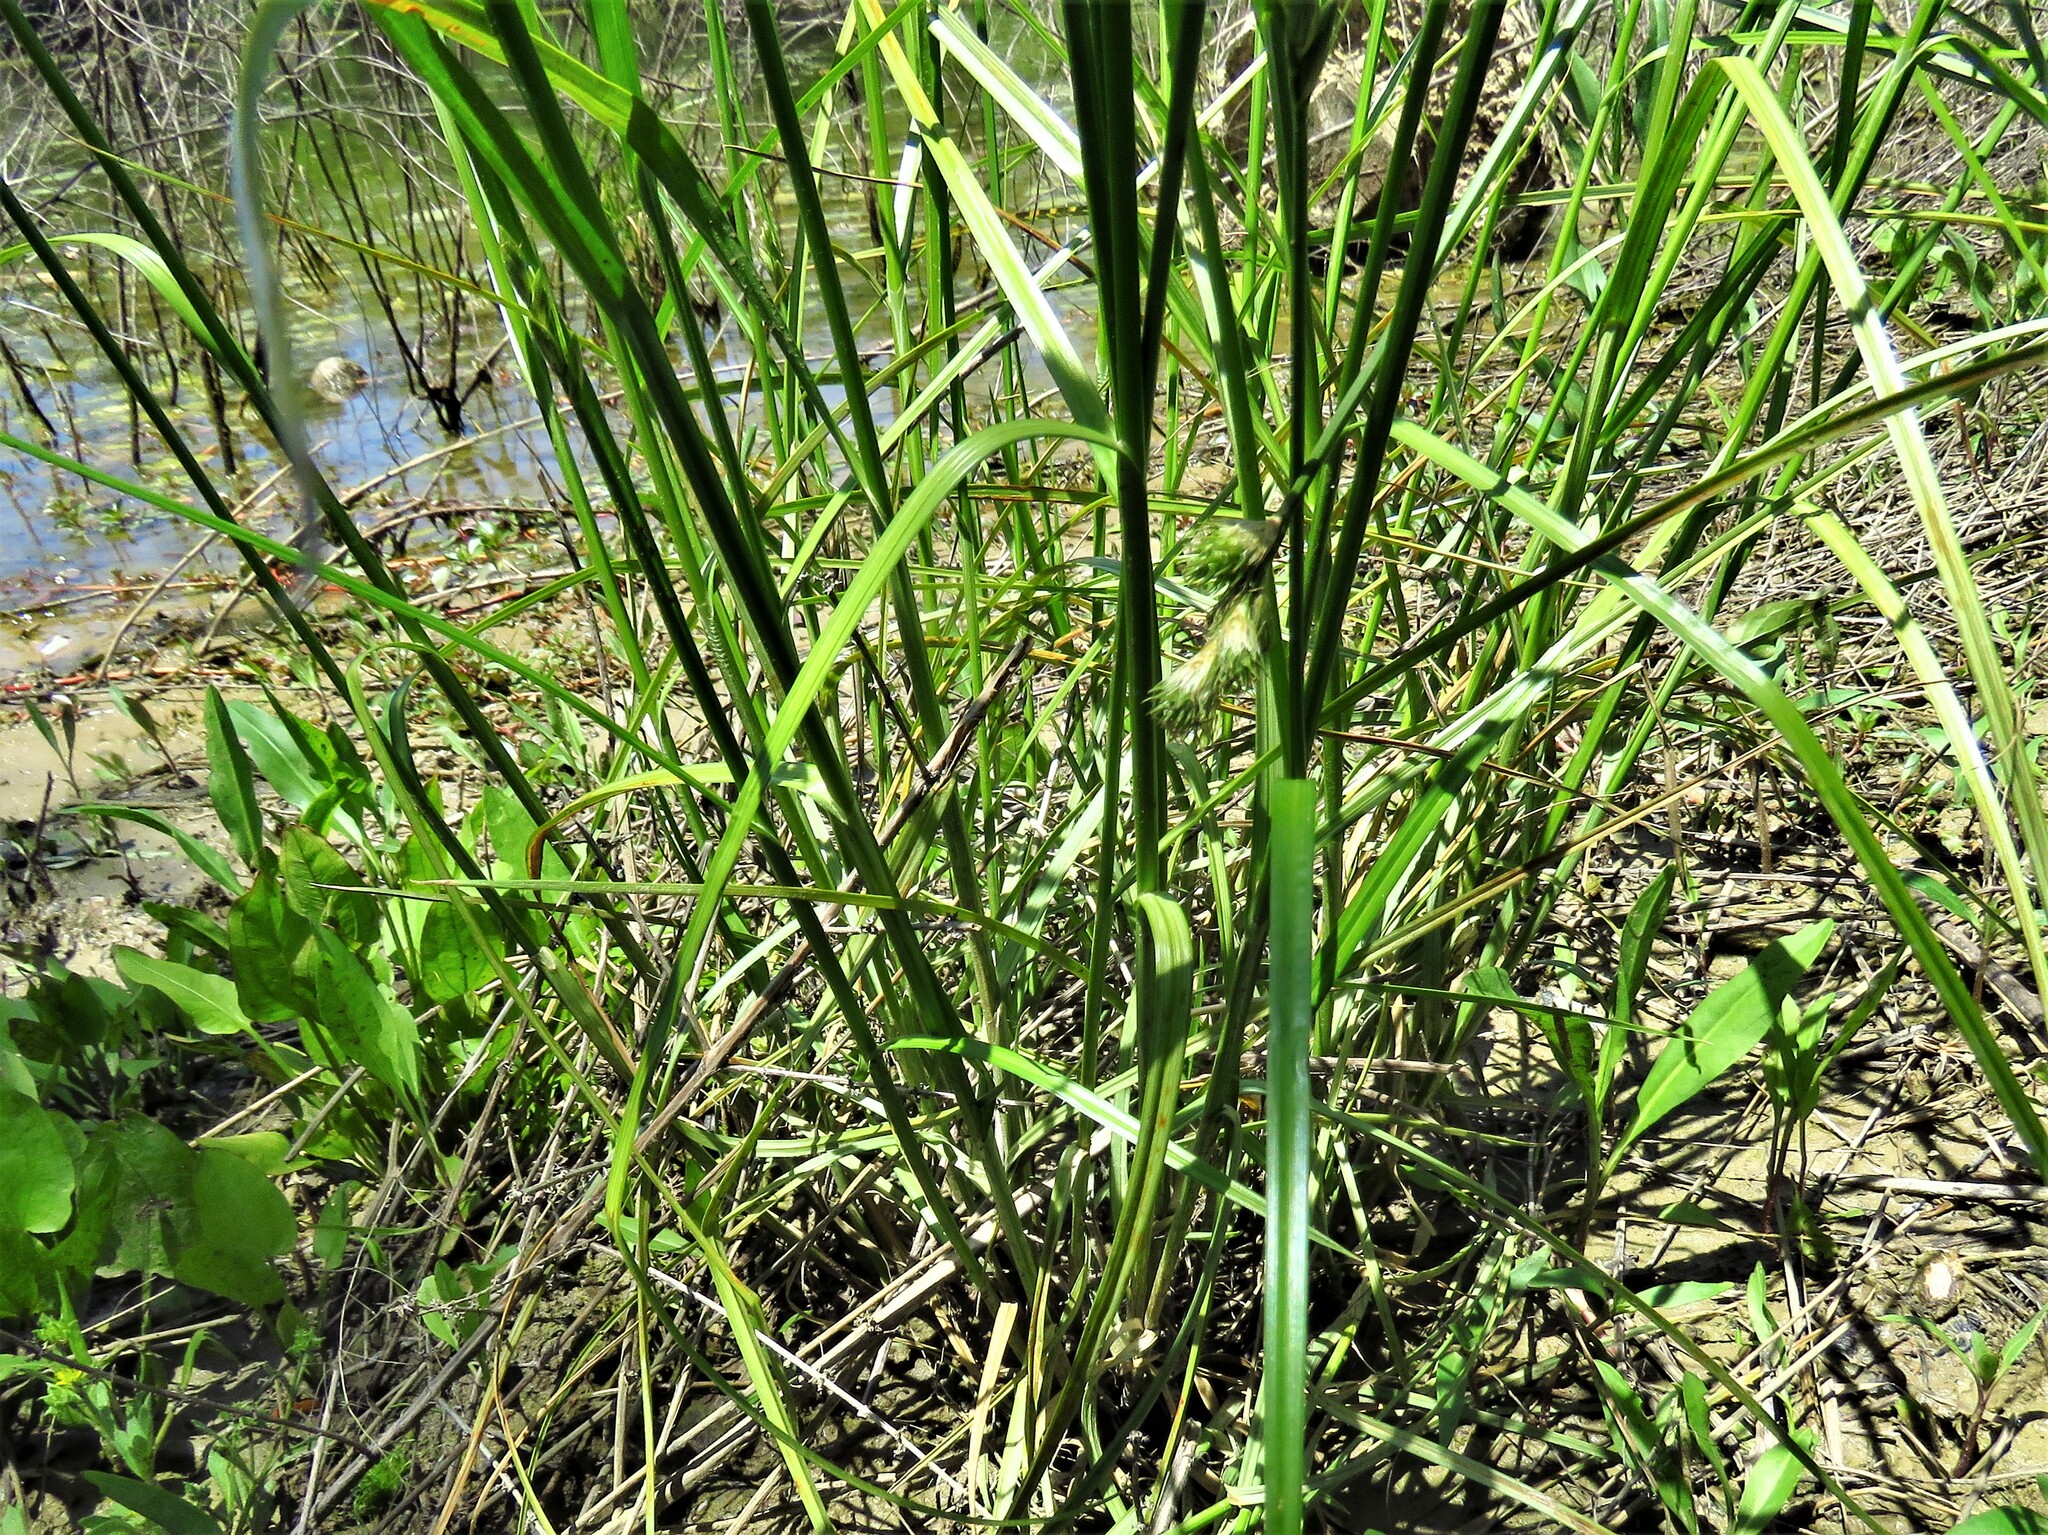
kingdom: Plantae
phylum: Tracheophyta
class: Liliopsida
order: Poales
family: Cyperaceae
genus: Carex
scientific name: Carex tetrastachya
